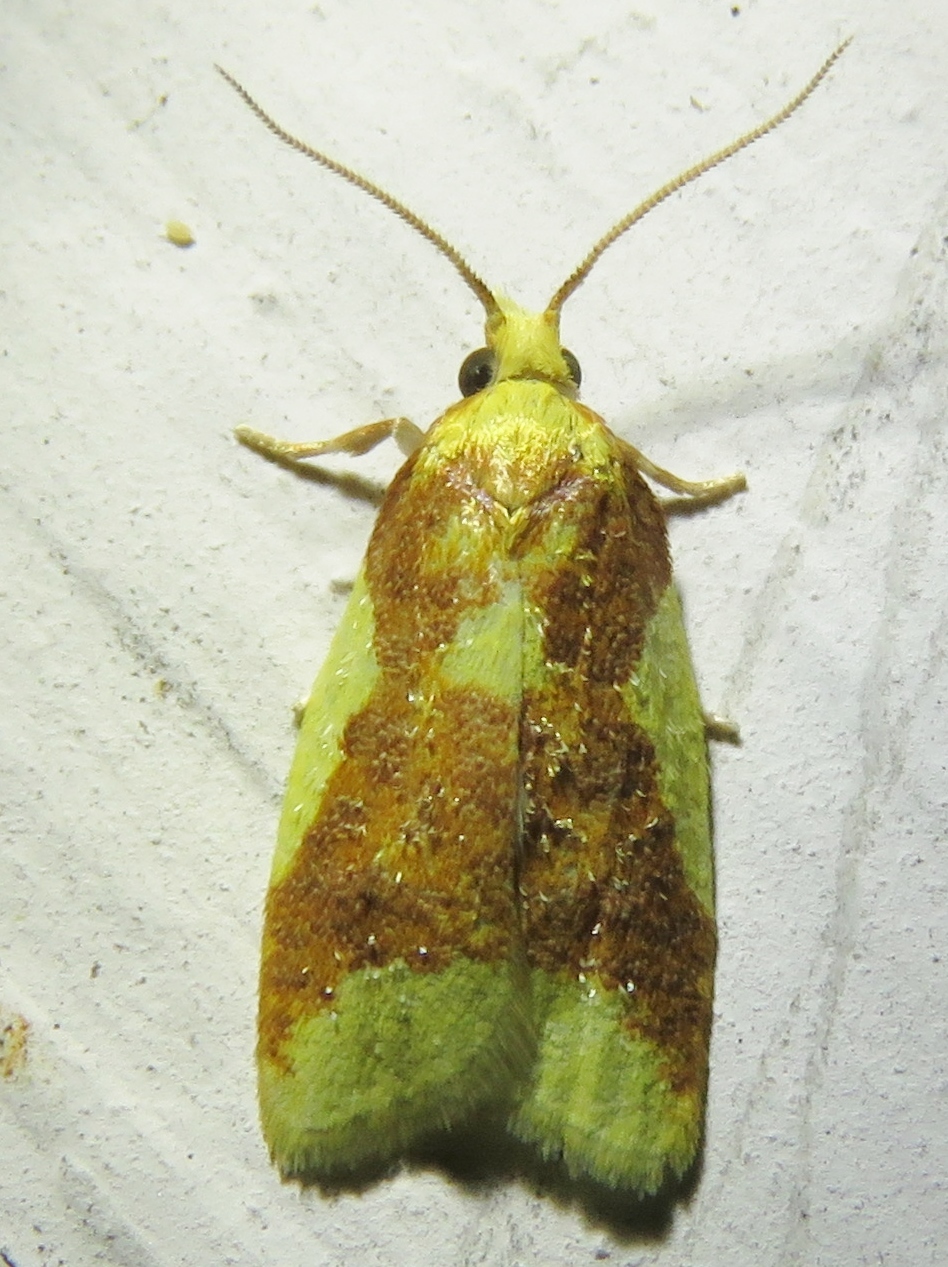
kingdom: Animalia
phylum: Arthropoda
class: Insecta
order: Lepidoptera
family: Tortricidae
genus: Sparganothis
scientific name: Sparganothis pulcherrimana
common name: Beautiful sparganothis
